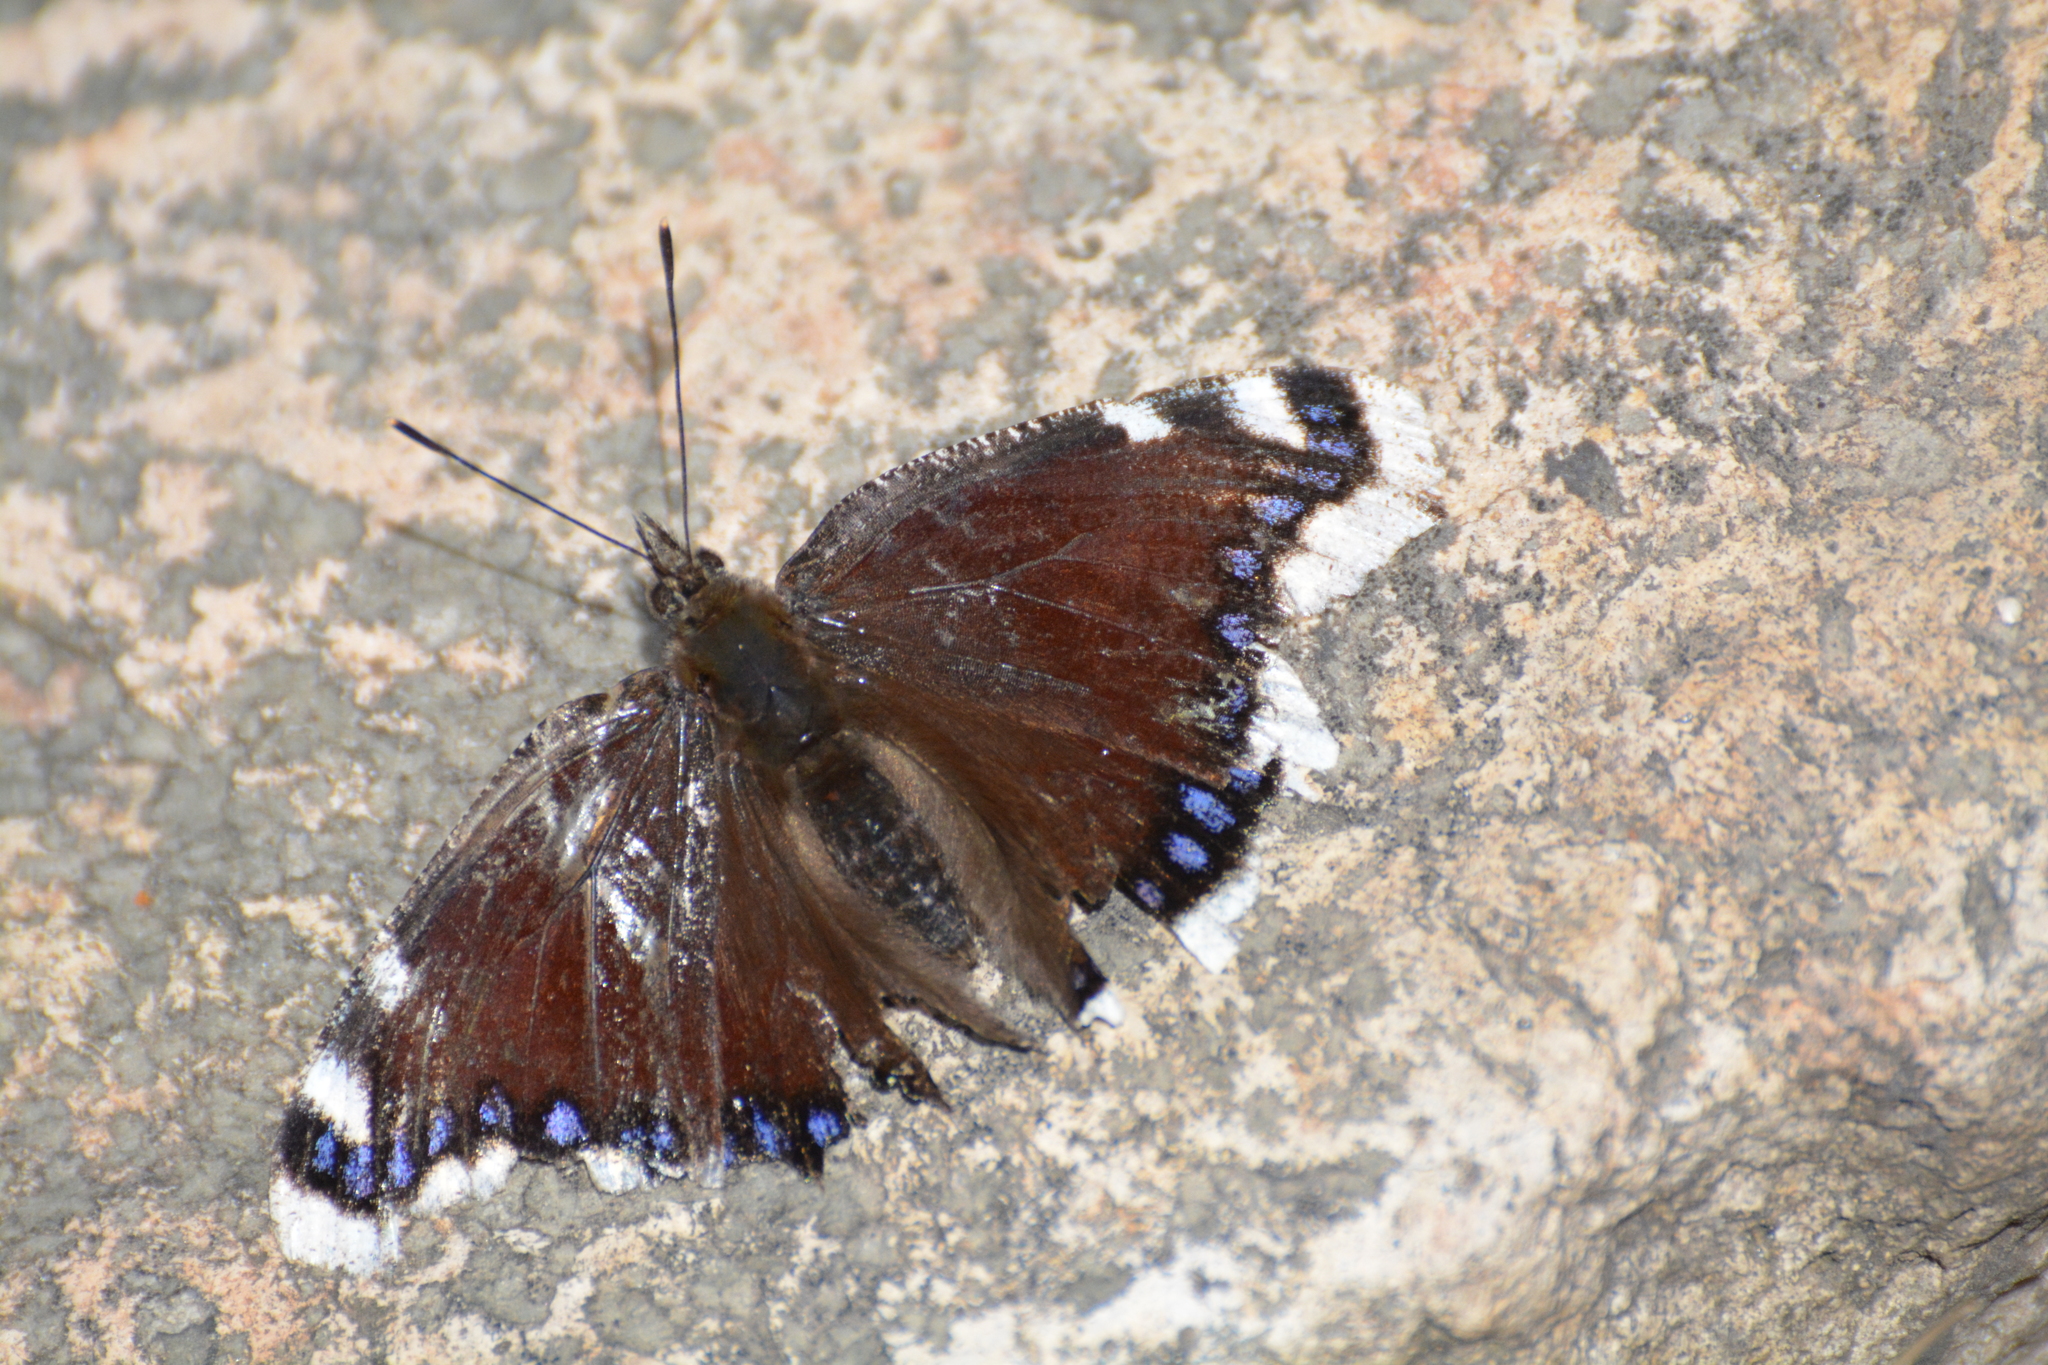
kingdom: Animalia
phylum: Arthropoda
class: Insecta
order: Lepidoptera
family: Nymphalidae
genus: Nymphalis
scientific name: Nymphalis antiopa
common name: Camberwell beauty
